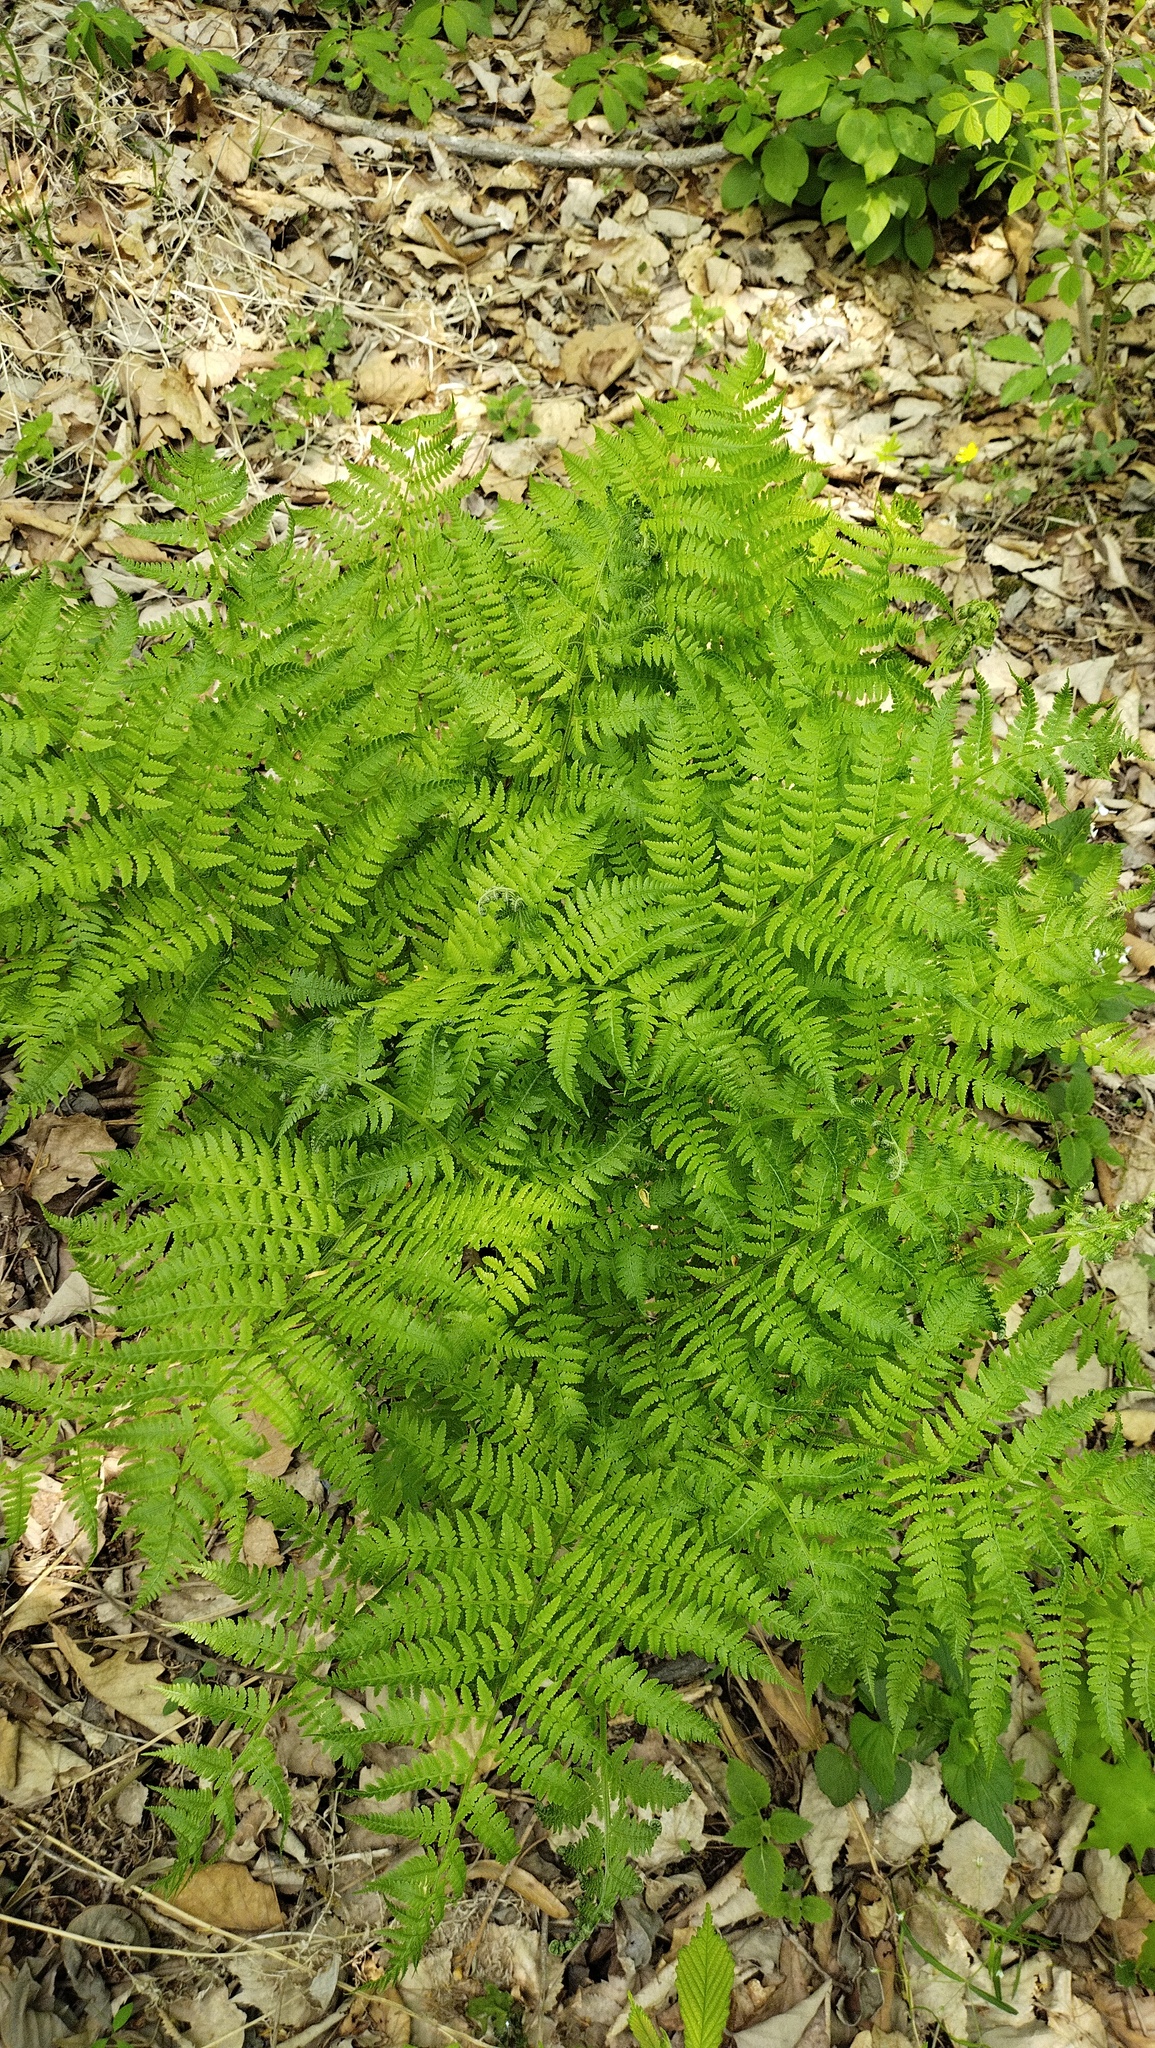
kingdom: Plantae
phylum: Tracheophyta
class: Polypodiopsida
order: Polypodiales
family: Athyriaceae
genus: Athyrium
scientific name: Athyrium filix-femina
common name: Lady fern
